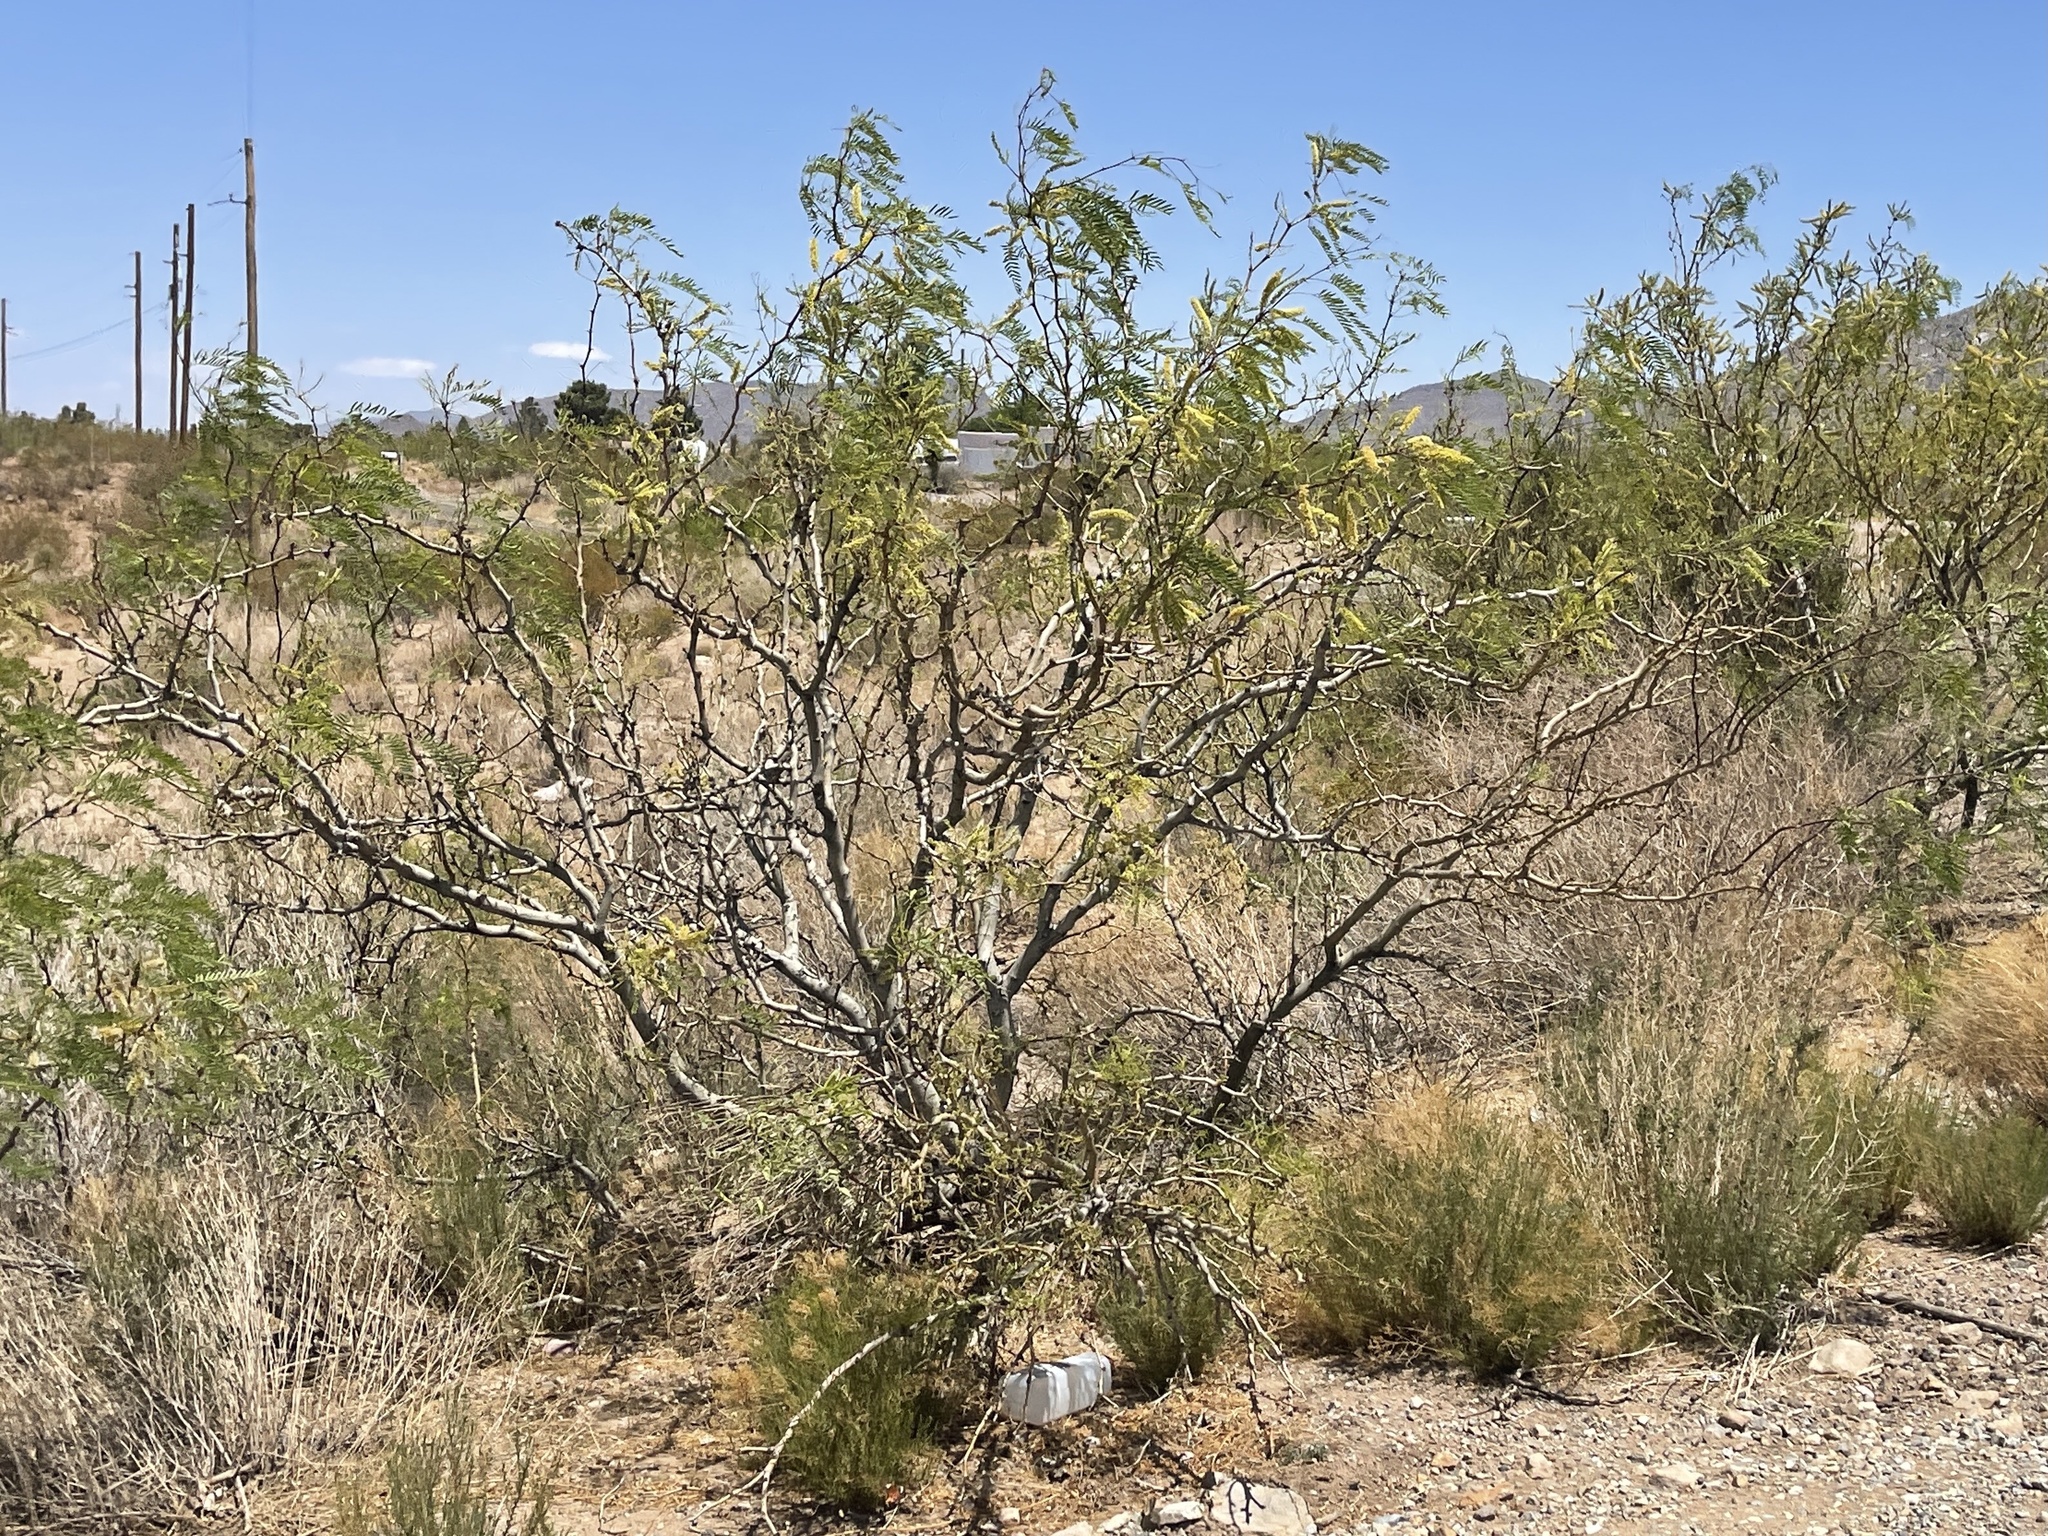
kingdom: Plantae
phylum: Tracheophyta
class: Magnoliopsida
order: Fabales
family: Fabaceae
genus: Prosopis
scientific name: Prosopis glandulosa
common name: Honey mesquite
